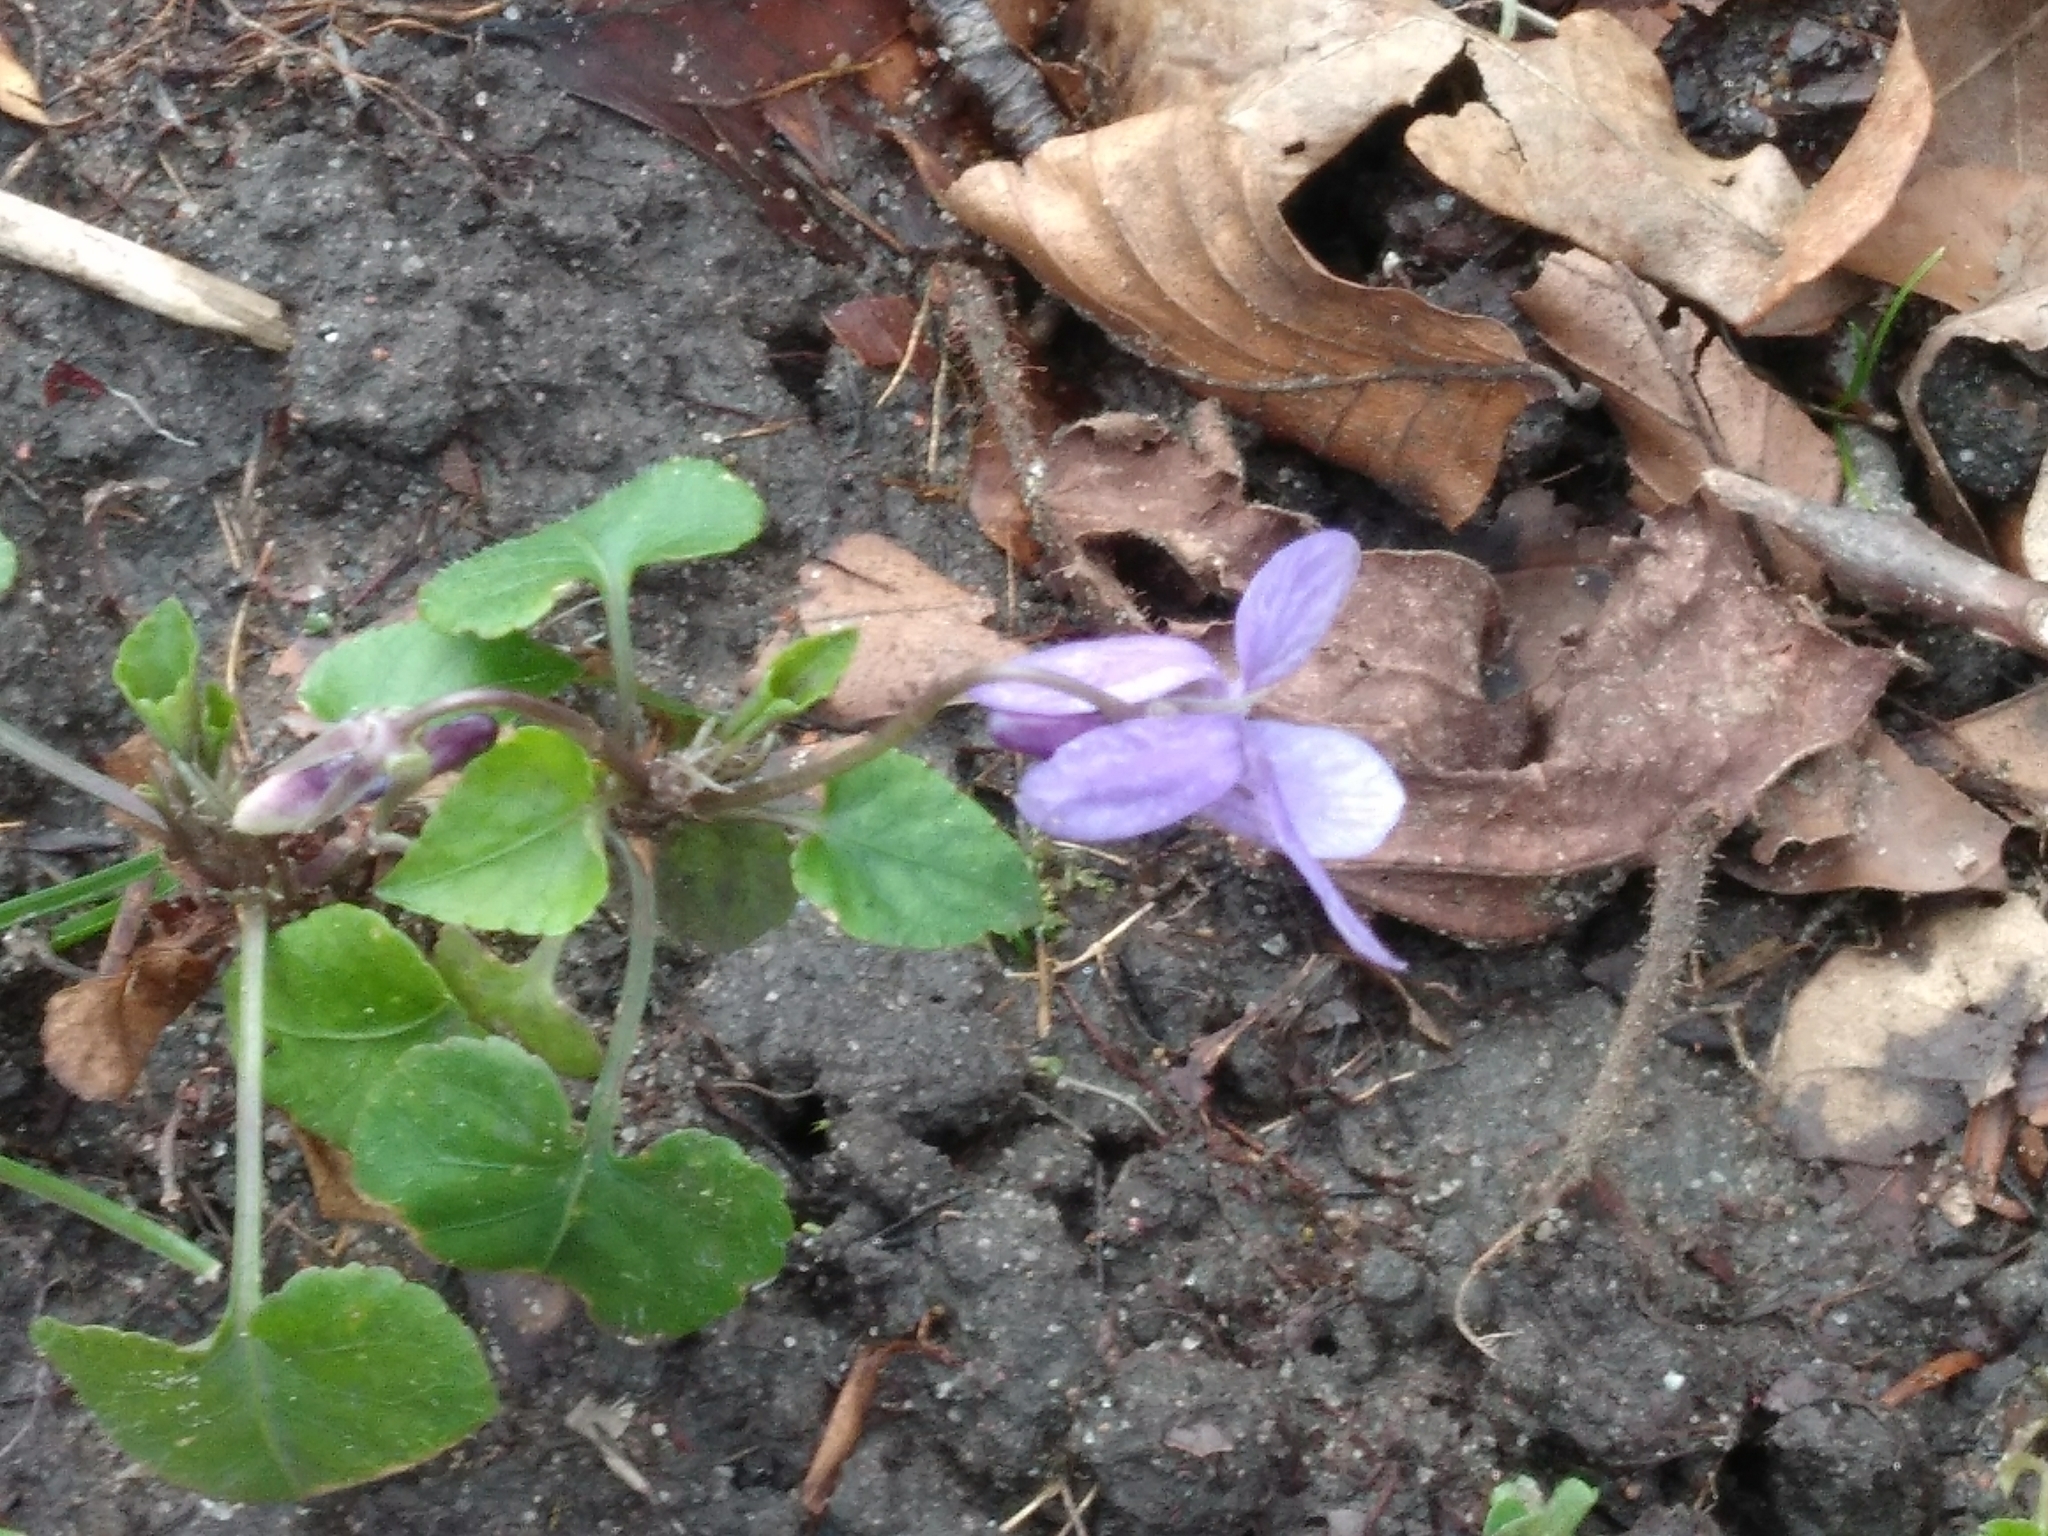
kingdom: Plantae
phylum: Tracheophyta
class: Magnoliopsida
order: Malpighiales
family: Violaceae
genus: Viola
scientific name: Viola reichenbachiana
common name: Early dog-violet
